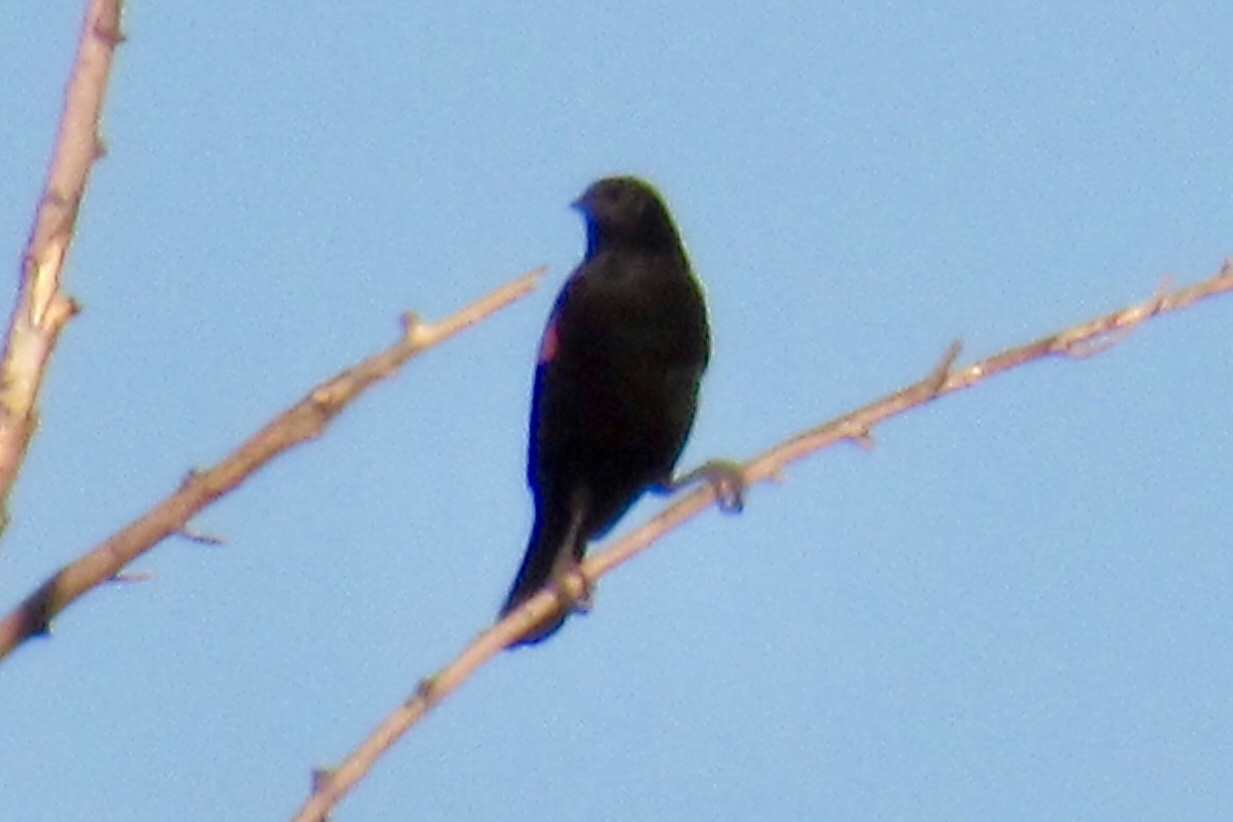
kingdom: Animalia
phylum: Chordata
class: Aves
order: Passeriformes
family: Icteridae
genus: Agelaius
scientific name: Agelaius phoeniceus
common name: Red-winged blackbird
